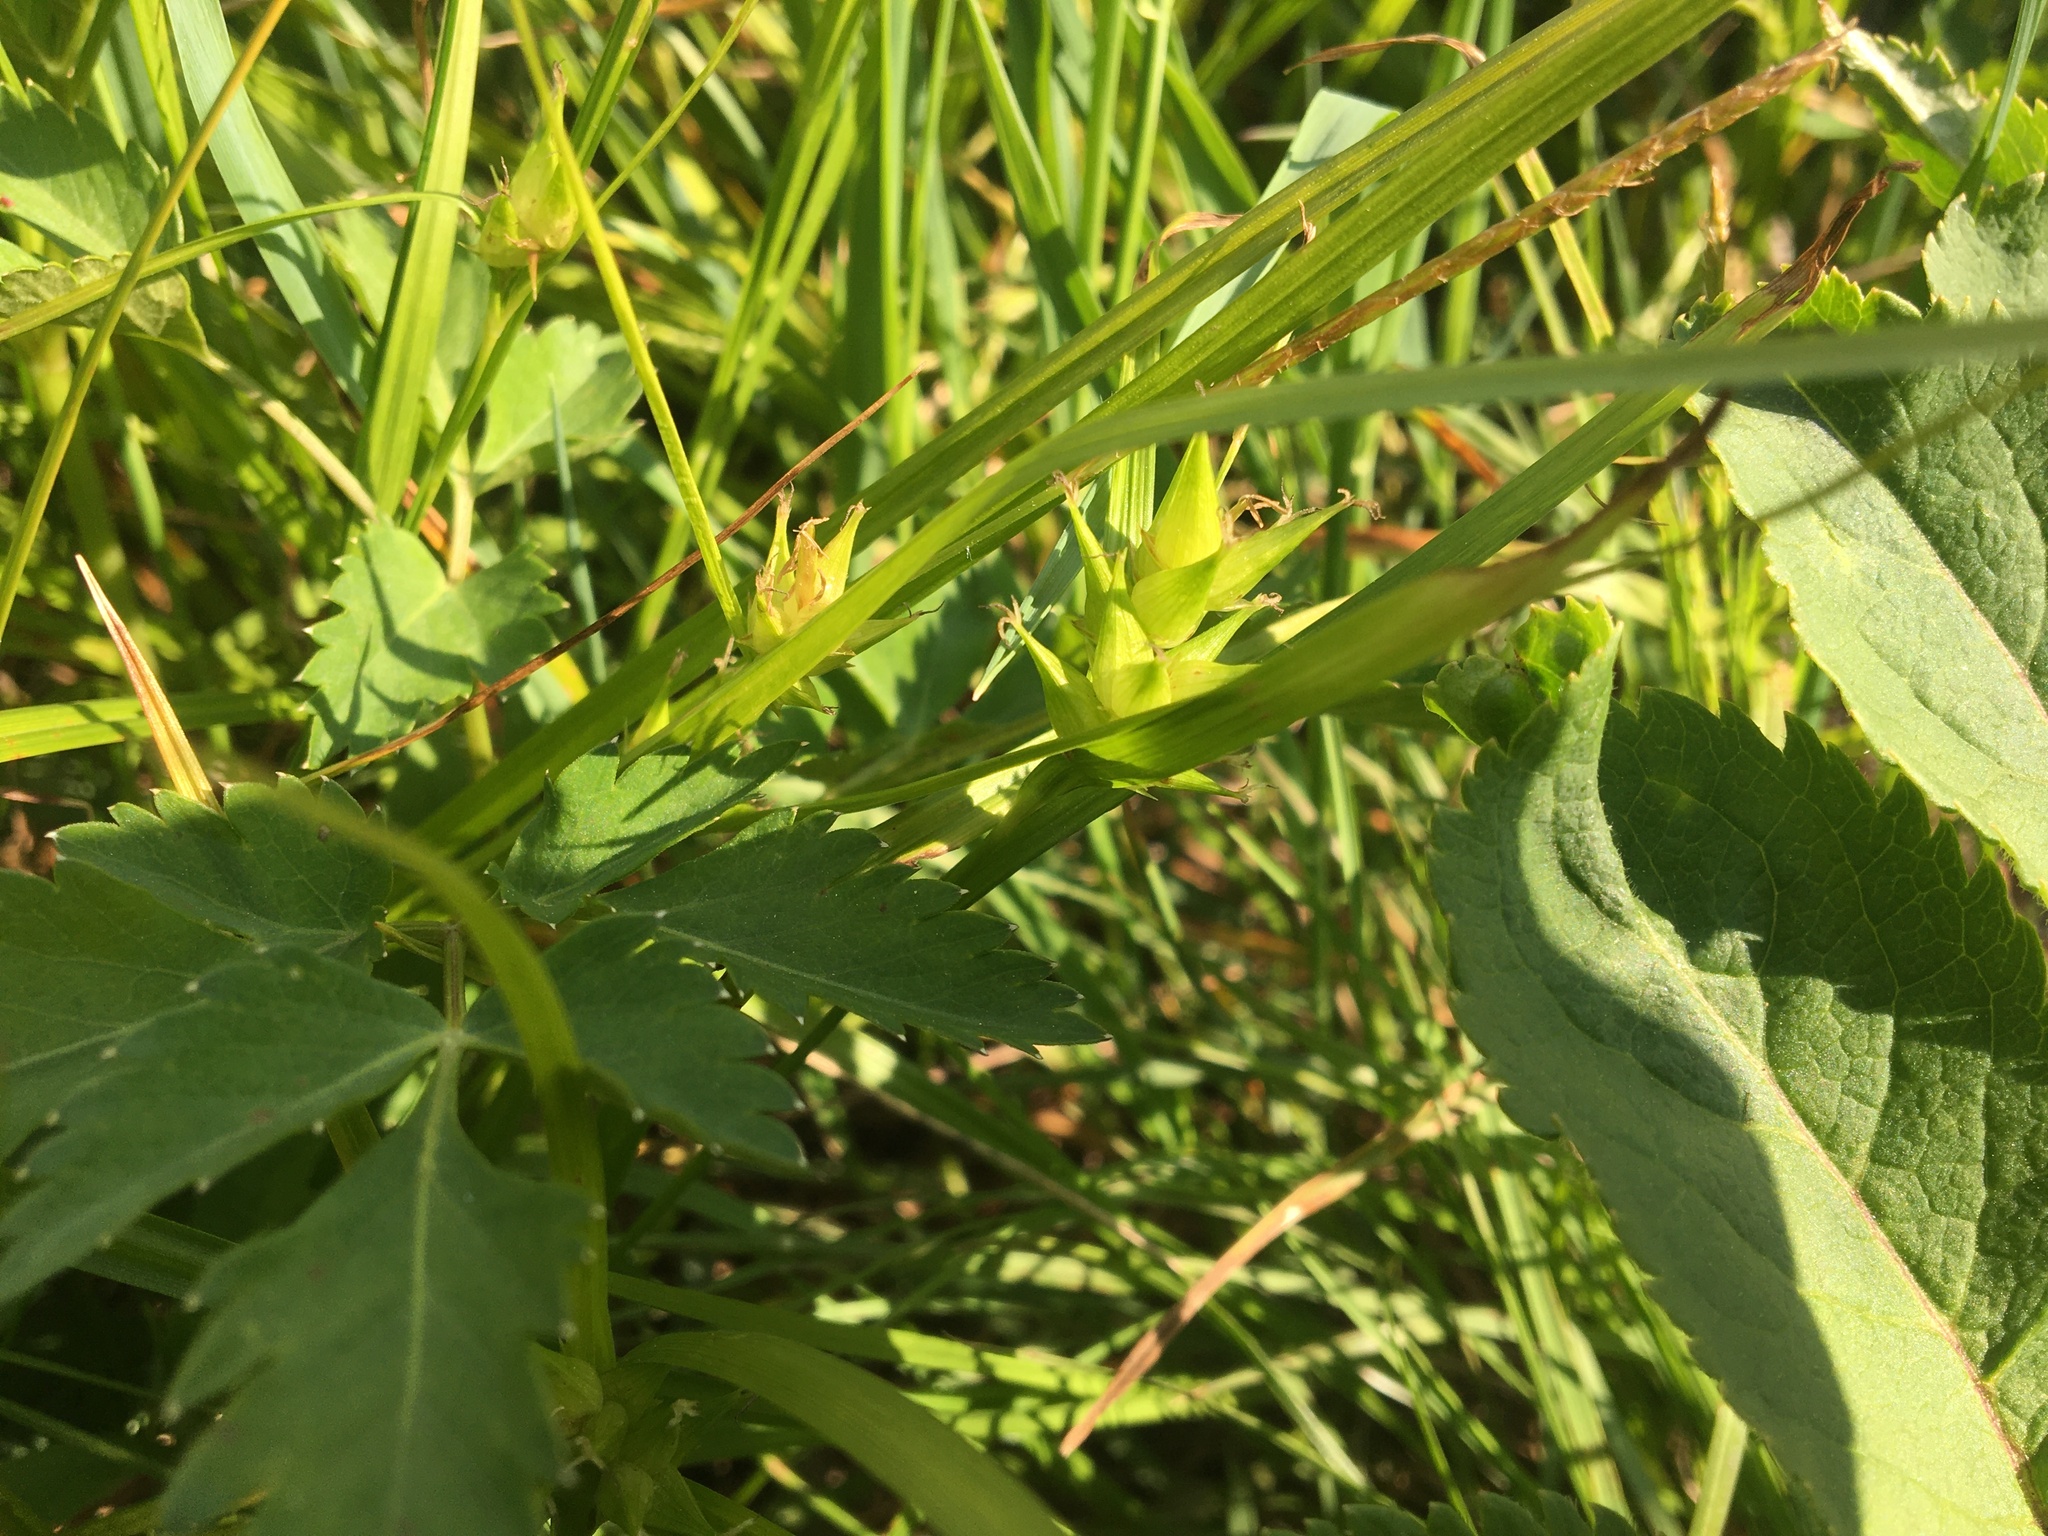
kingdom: Plantae
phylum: Tracheophyta
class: Liliopsida
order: Poales
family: Cyperaceae
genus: Carex
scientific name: Carex intumescens
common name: Greater bladder sedge
